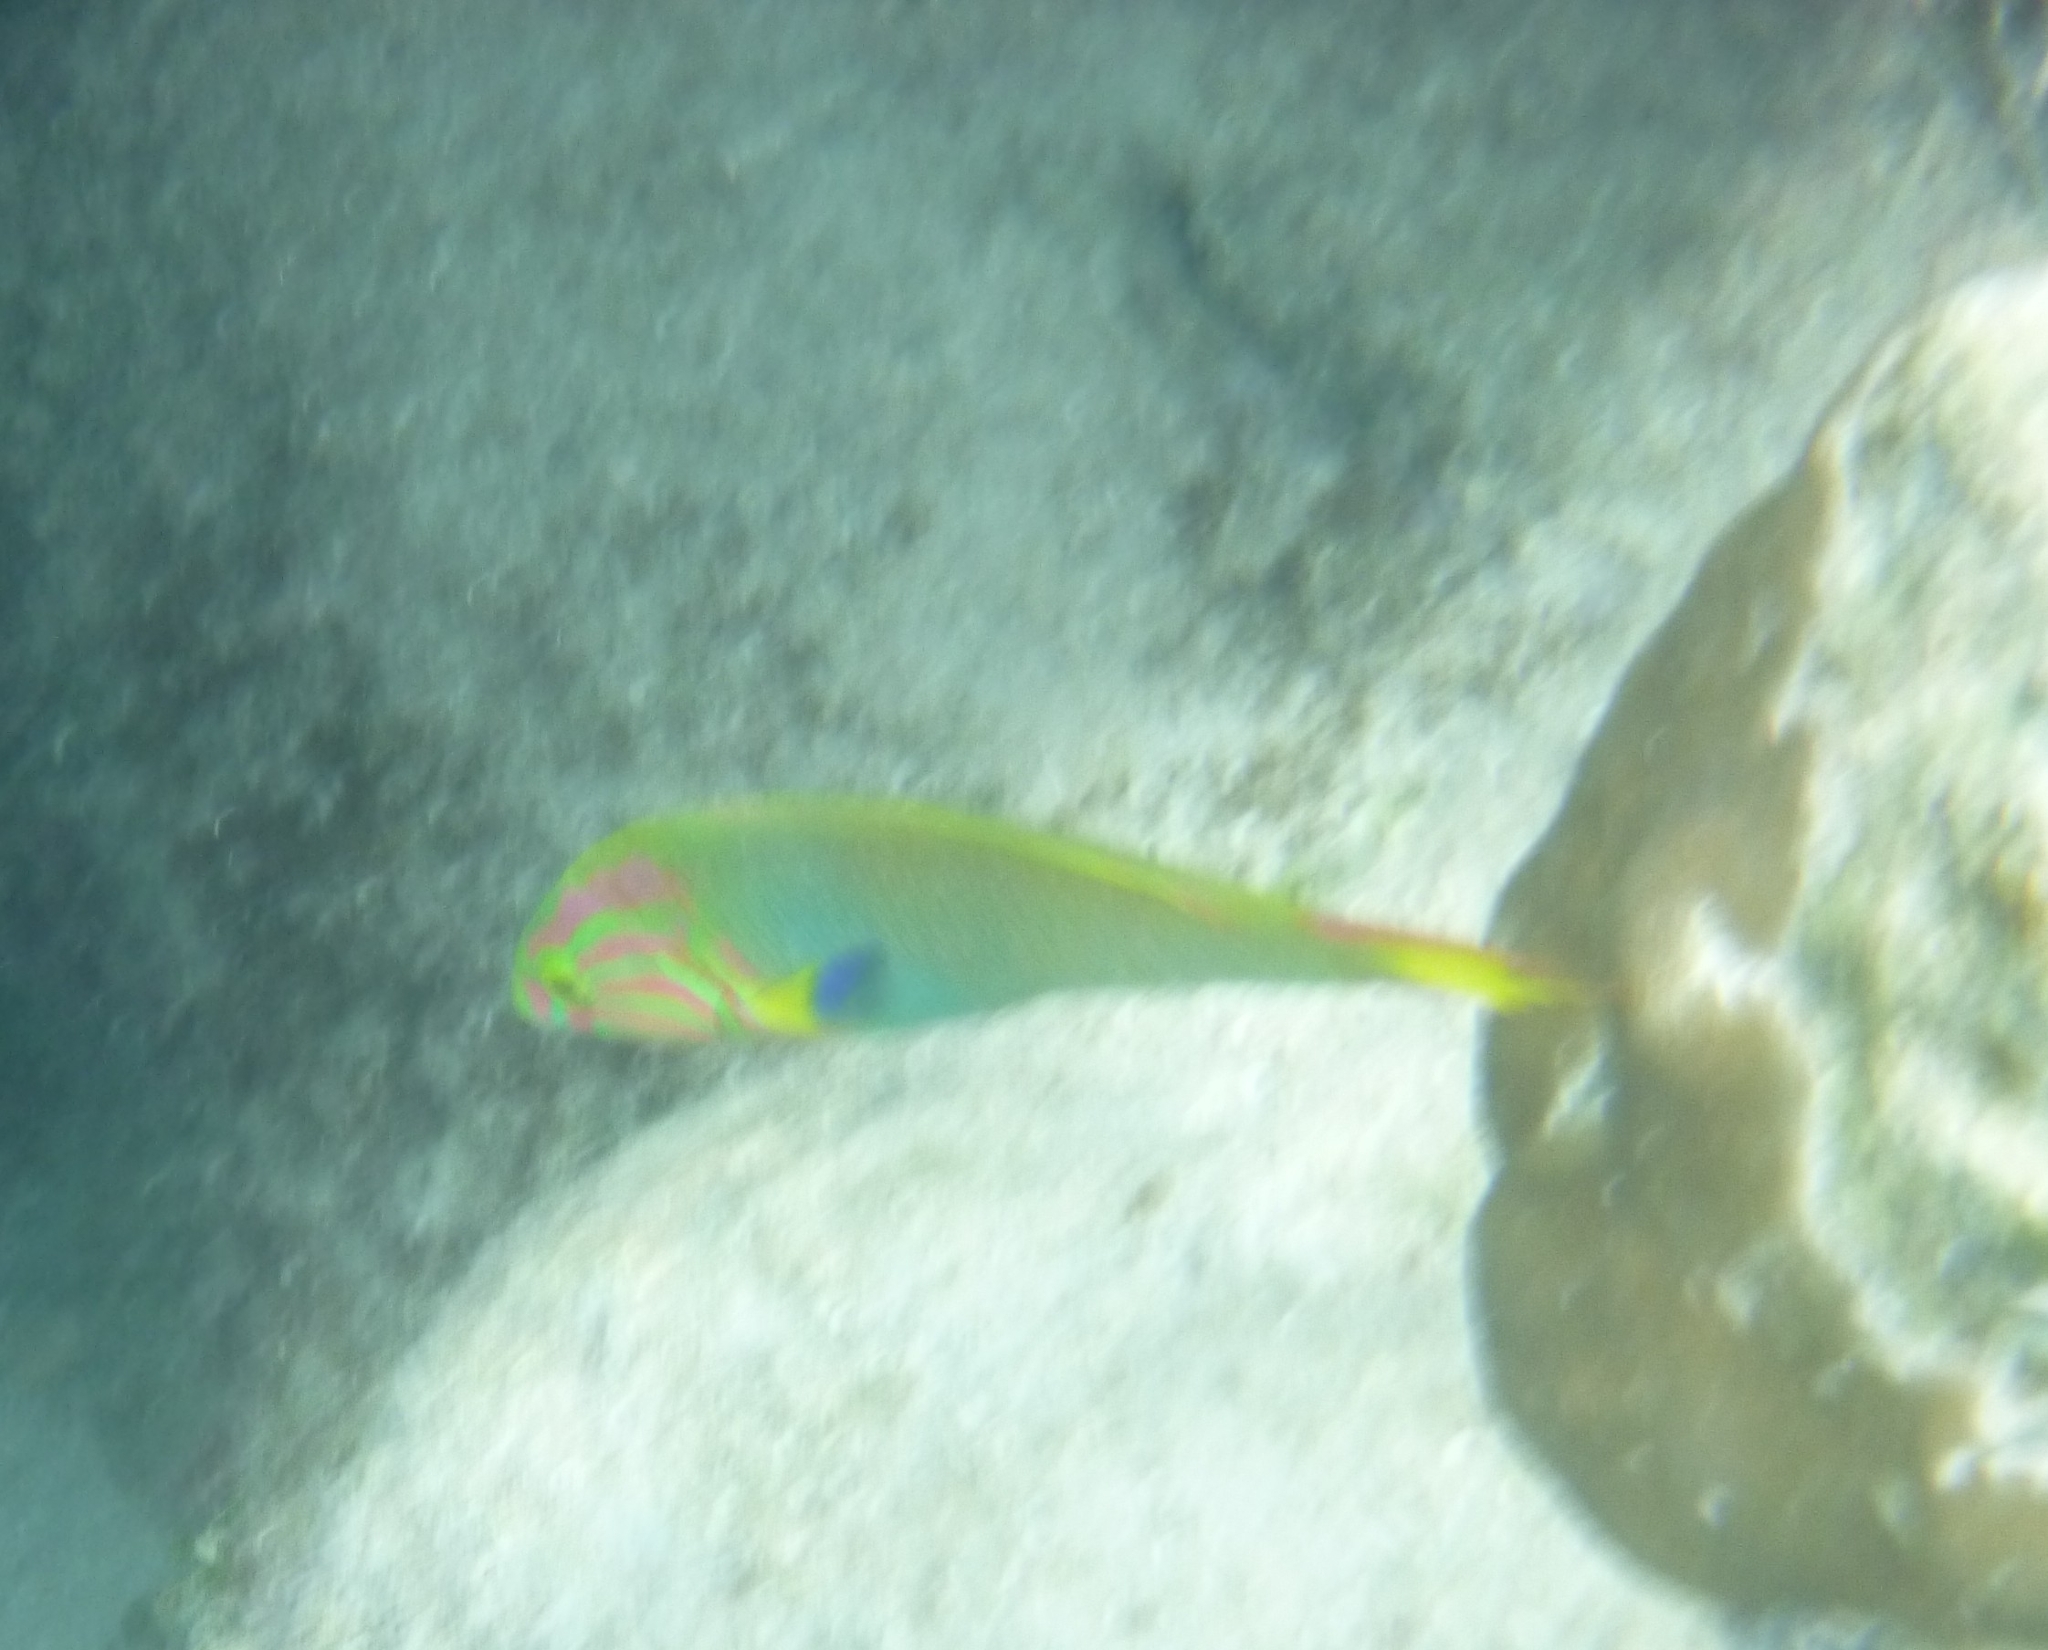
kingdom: Animalia
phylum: Chordata
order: Perciformes
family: Labridae
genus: Thalassoma
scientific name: Thalassoma lutescens
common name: Green moon wrasse
